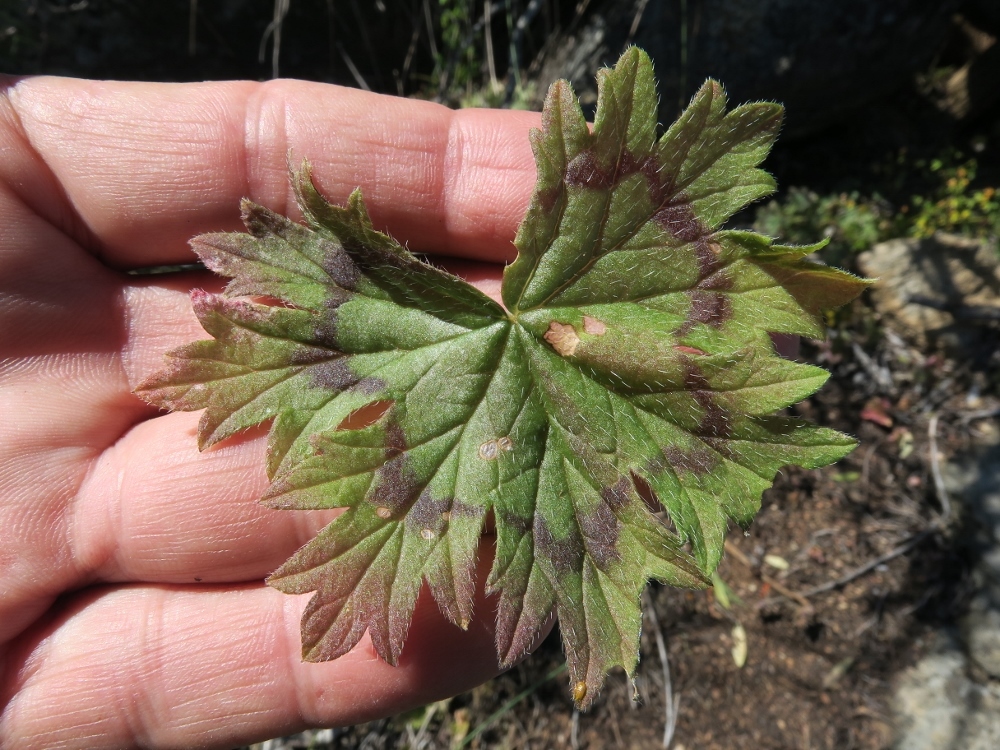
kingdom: Plantae
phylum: Tracheophyta
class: Magnoliopsida
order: Geraniales
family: Geraniaceae
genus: Pelargonium
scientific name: Pelargonium articulatum
